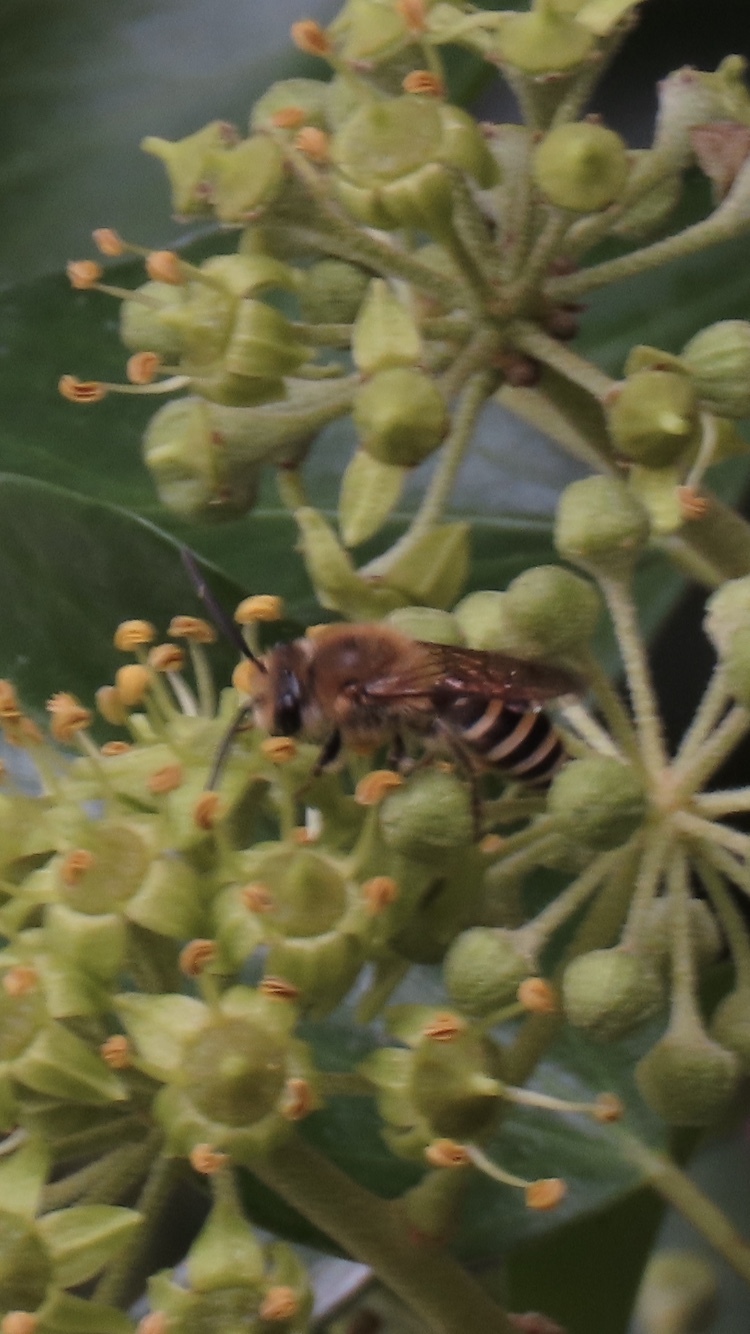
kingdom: Animalia
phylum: Arthropoda
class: Insecta
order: Hymenoptera
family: Colletidae
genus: Colletes
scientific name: Colletes hederae
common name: Ivy bee
